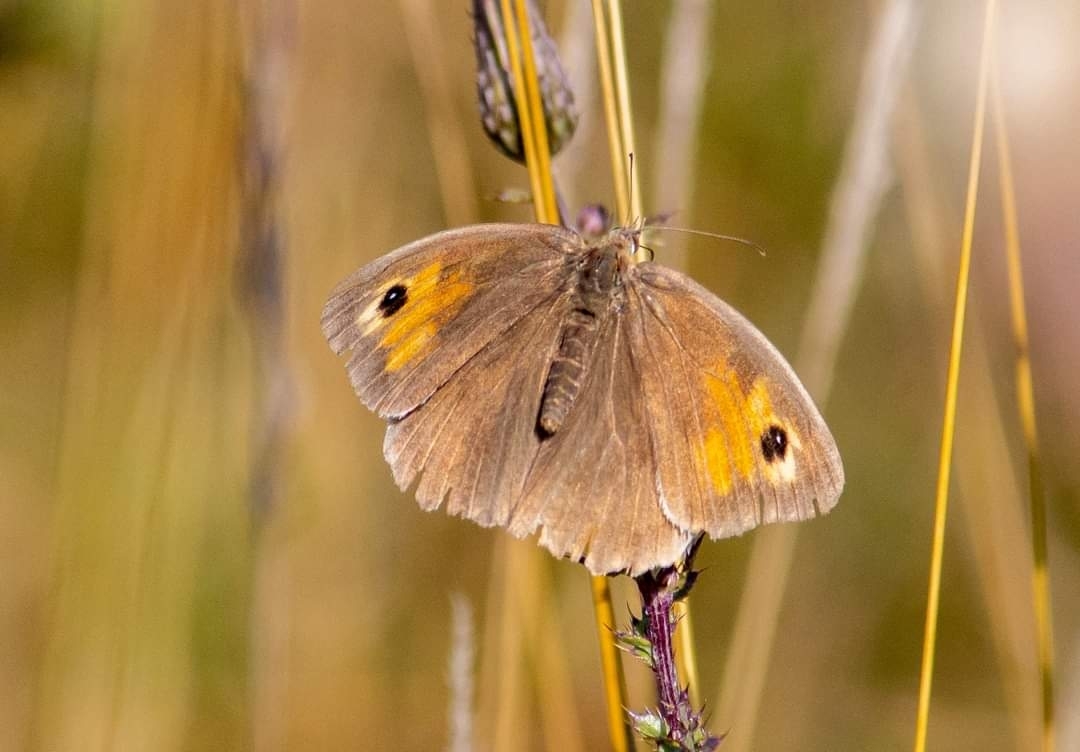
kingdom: Animalia
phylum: Arthropoda
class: Insecta
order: Lepidoptera
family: Nymphalidae
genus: Maniola
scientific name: Maniola jurtina
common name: Meadow brown
